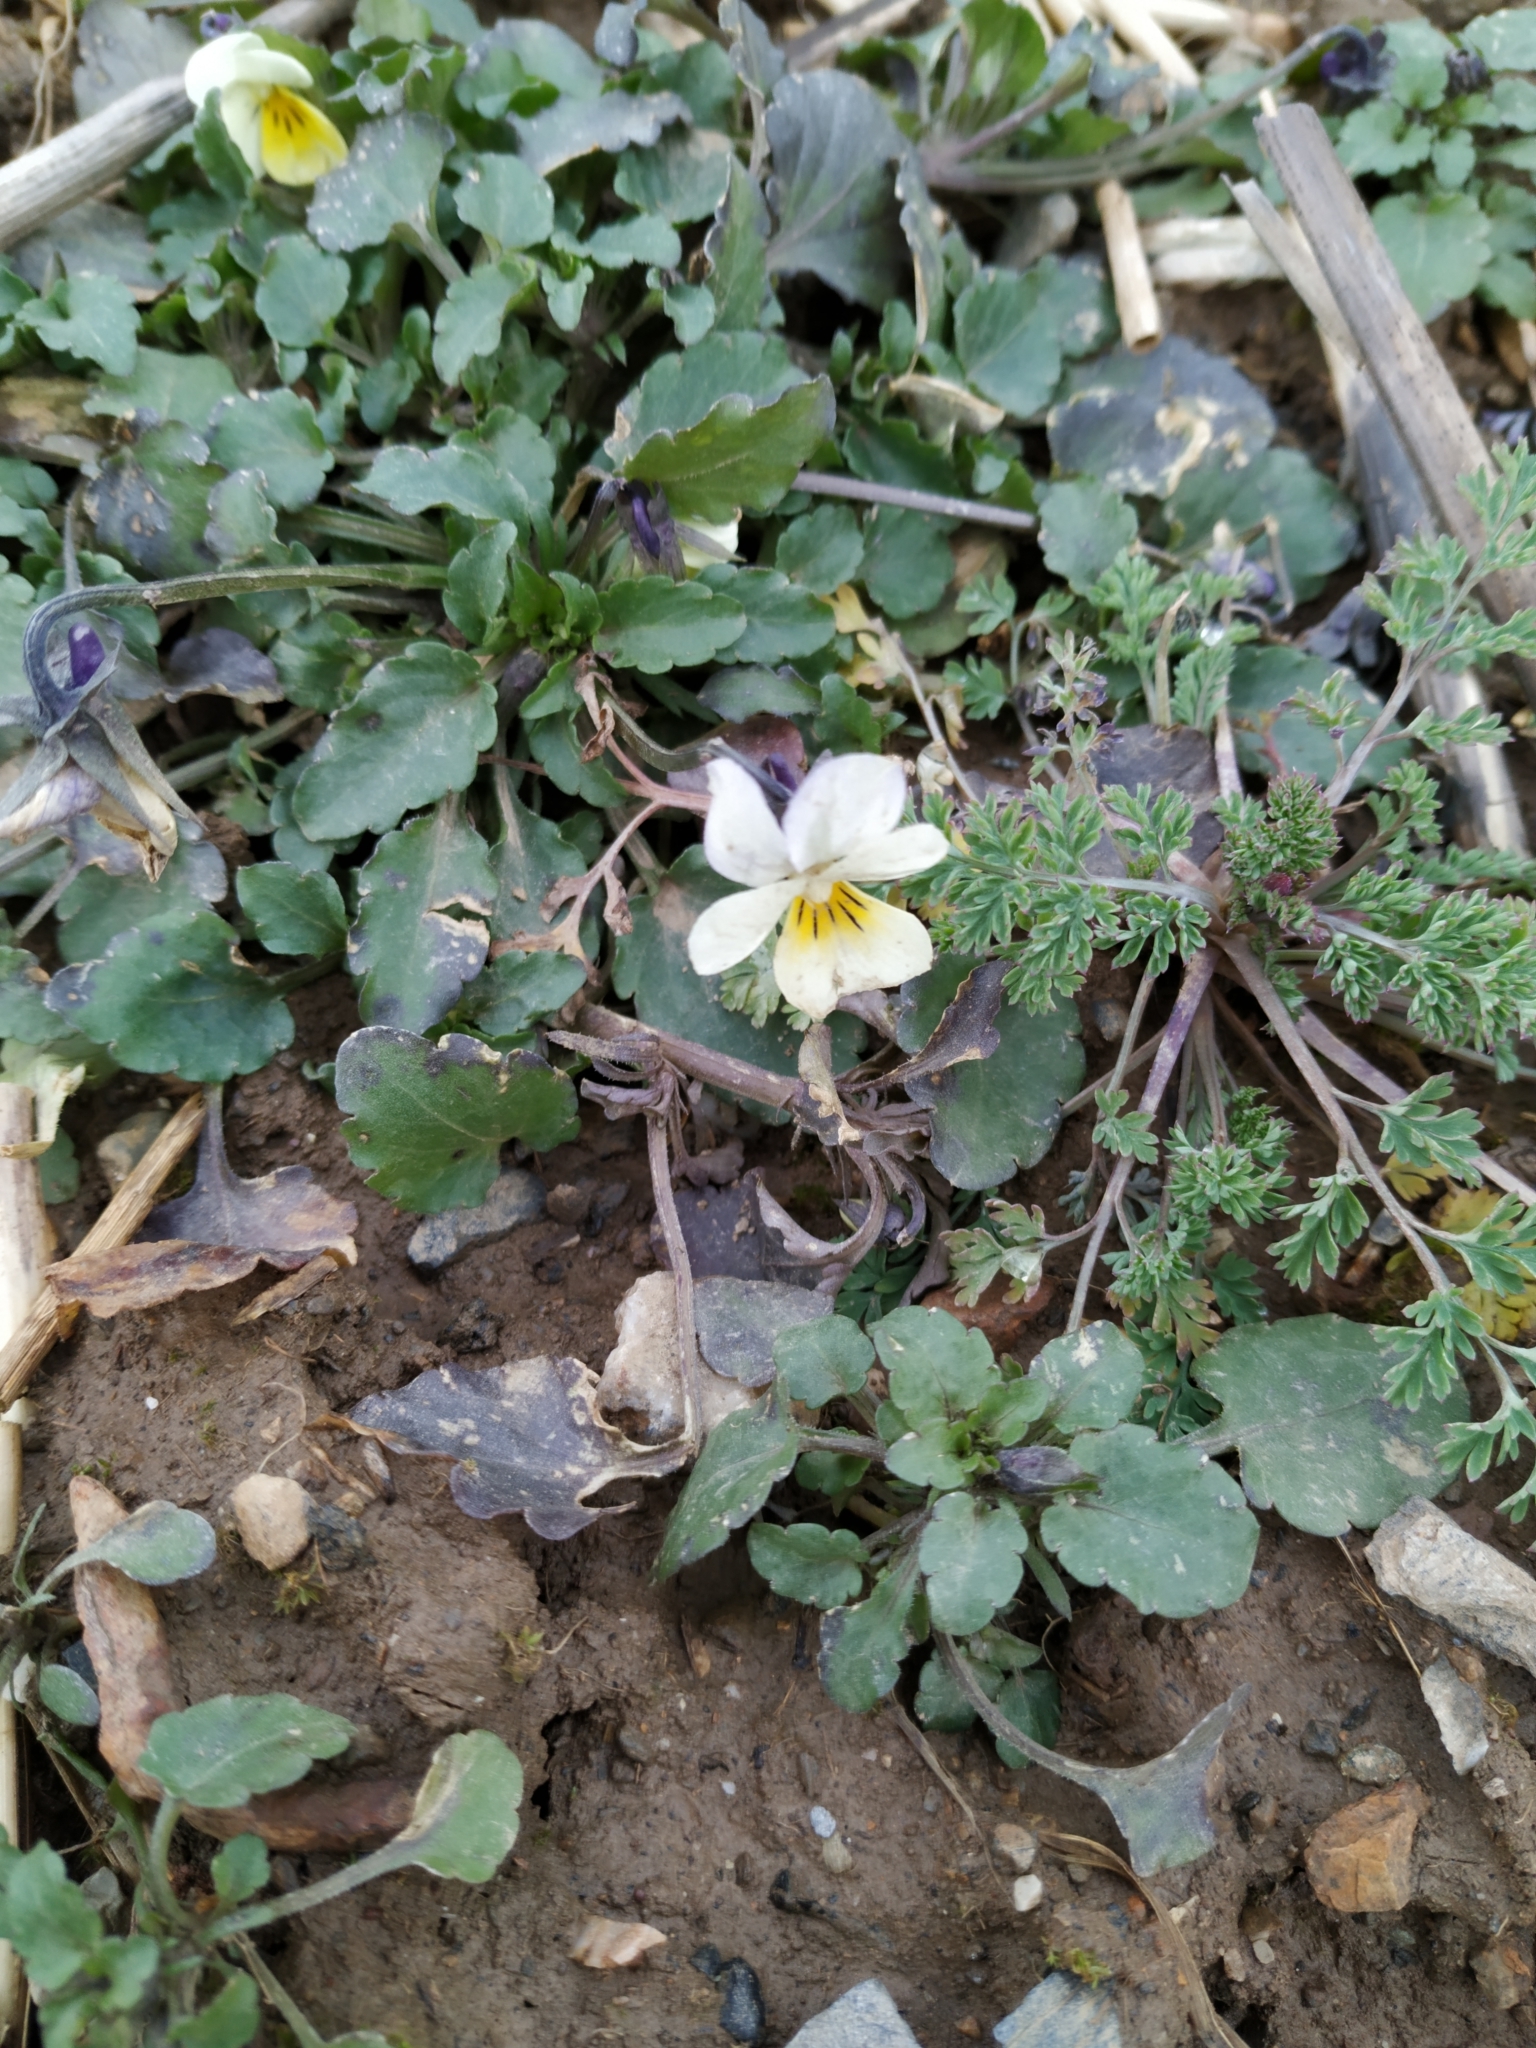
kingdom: Plantae
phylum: Tracheophyta
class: Magnoliopsida
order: Malpighiales
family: Violaceae
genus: Viola
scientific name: Viola arvensis
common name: Field pansy
